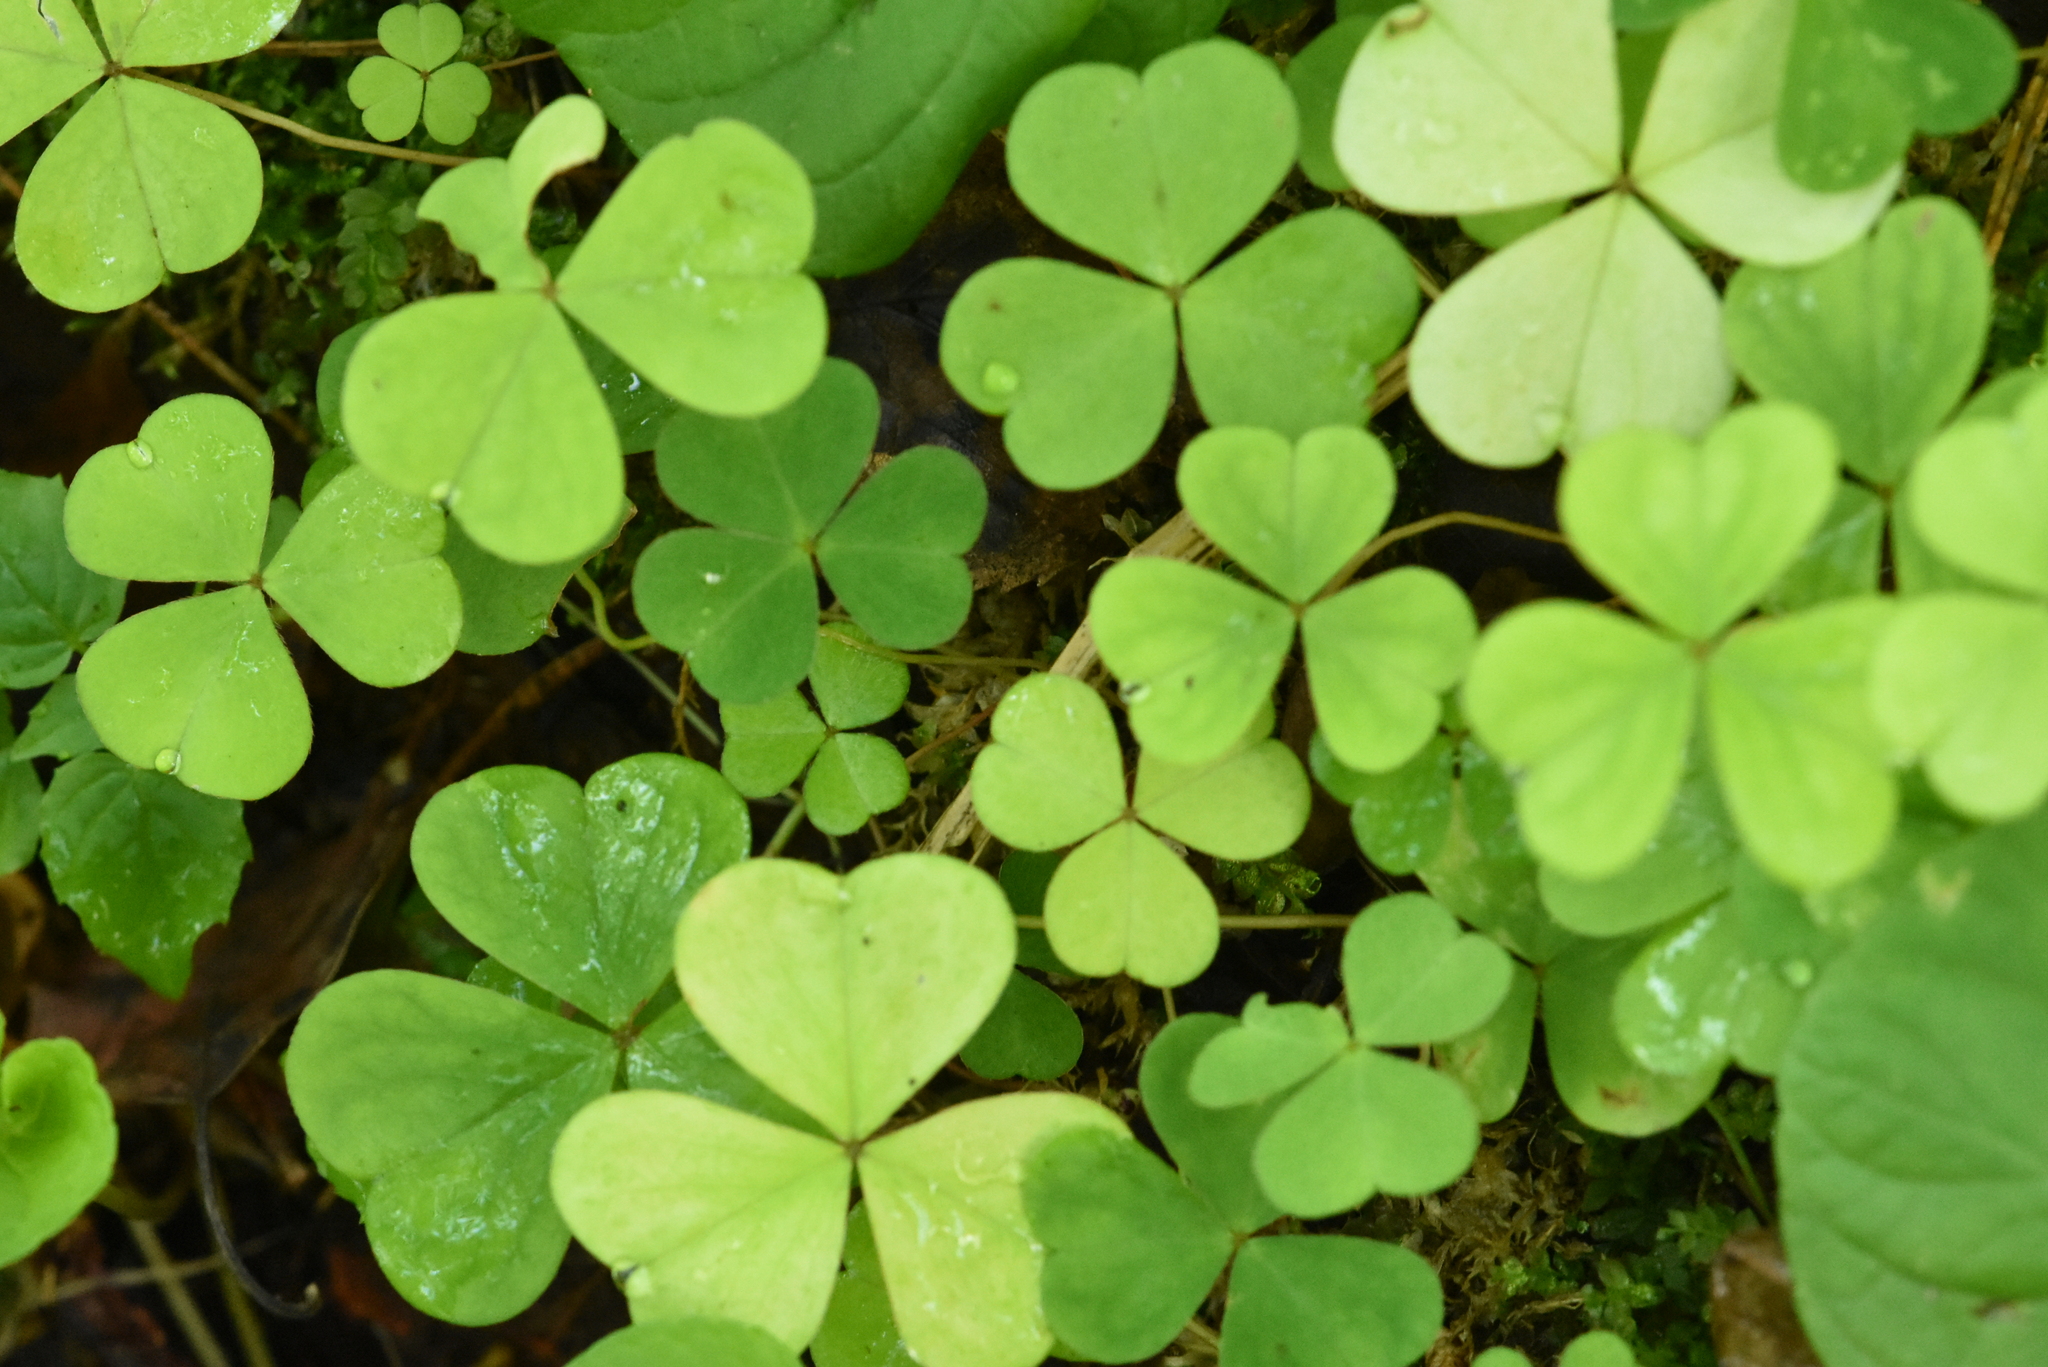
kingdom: Plantae
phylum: Tracheophyta
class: Magnoliopsida
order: Oxalidales
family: Oxalidaceae
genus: Oxalis
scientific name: Oxalis acetosella
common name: Wood-sorrel
